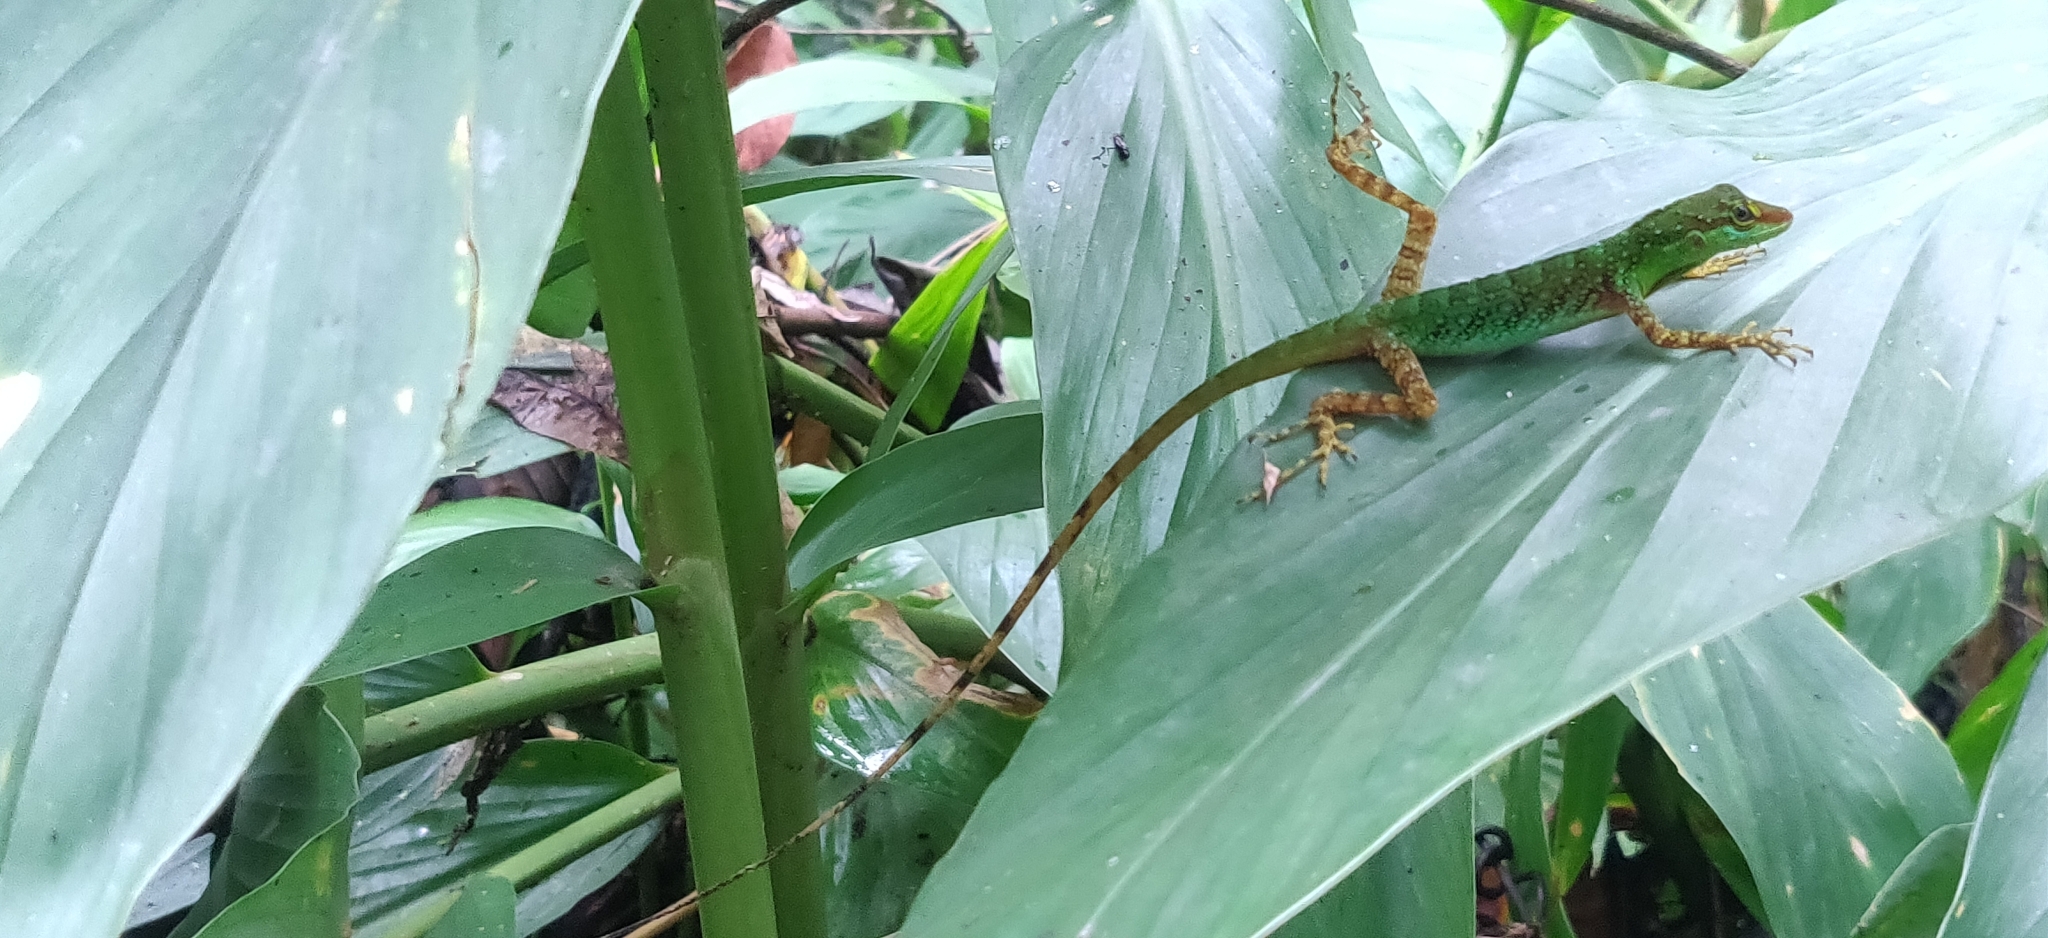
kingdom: Animalia
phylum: Chordata
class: Squamata
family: Dactyloidae
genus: Anolis
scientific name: Anolis ventrimaculatus
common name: Speckled anole
